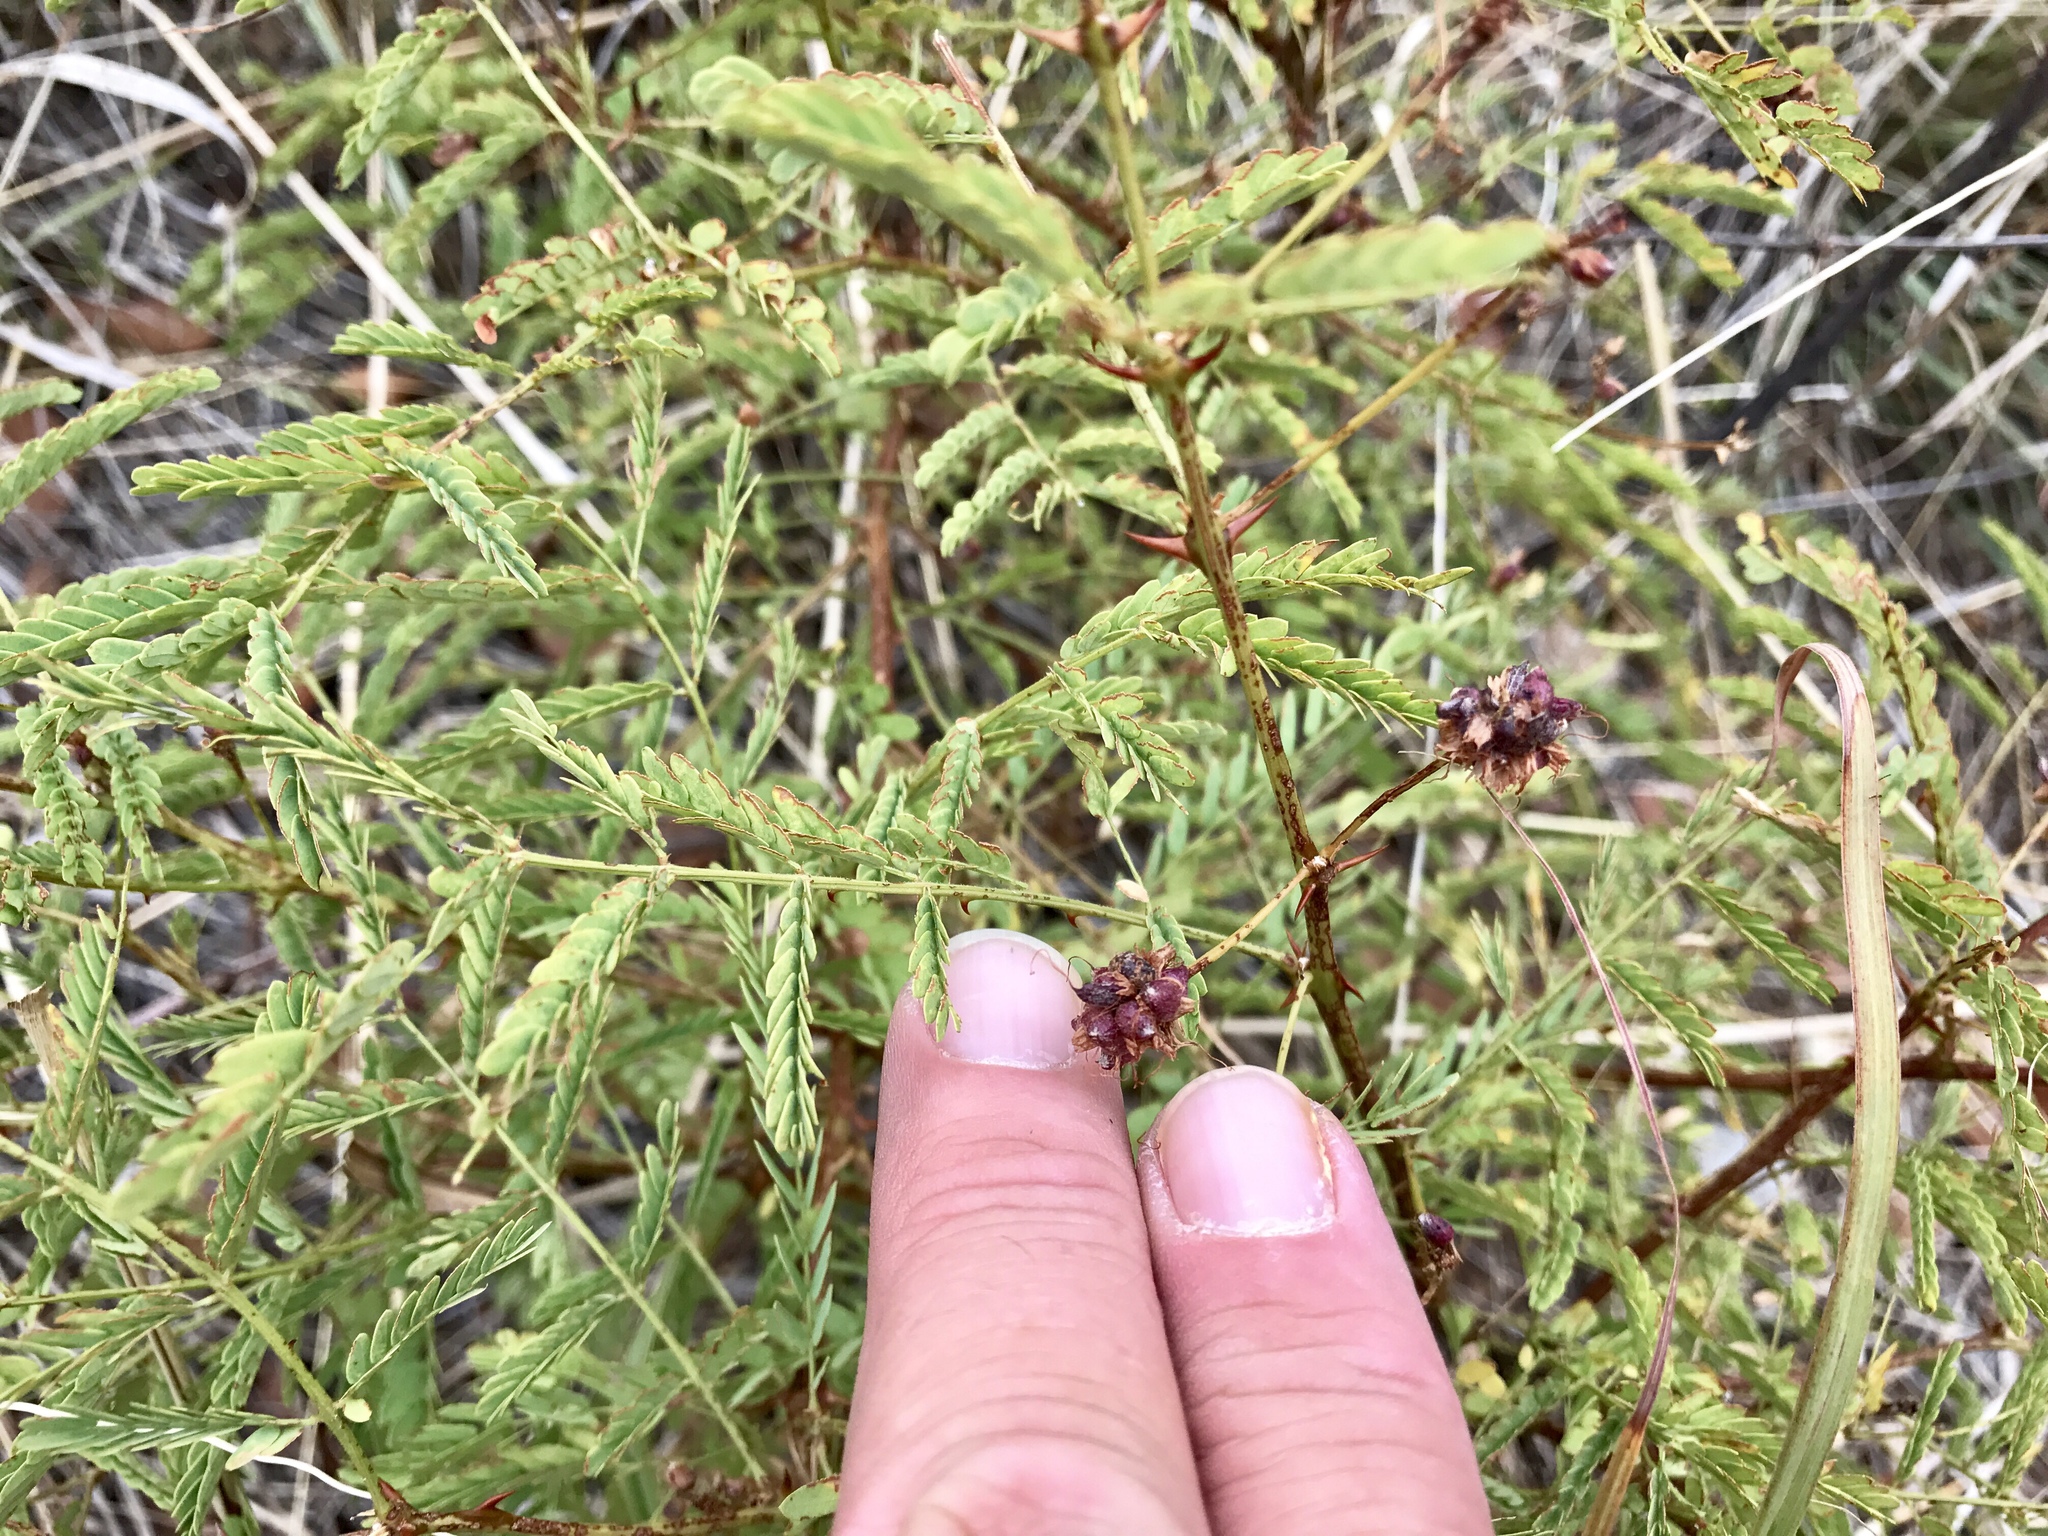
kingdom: Plantae
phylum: Tracheophyta
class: Magnoliopsida
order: Fabales
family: Fabaceae
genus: Mimosa
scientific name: Mimosa grahamii
